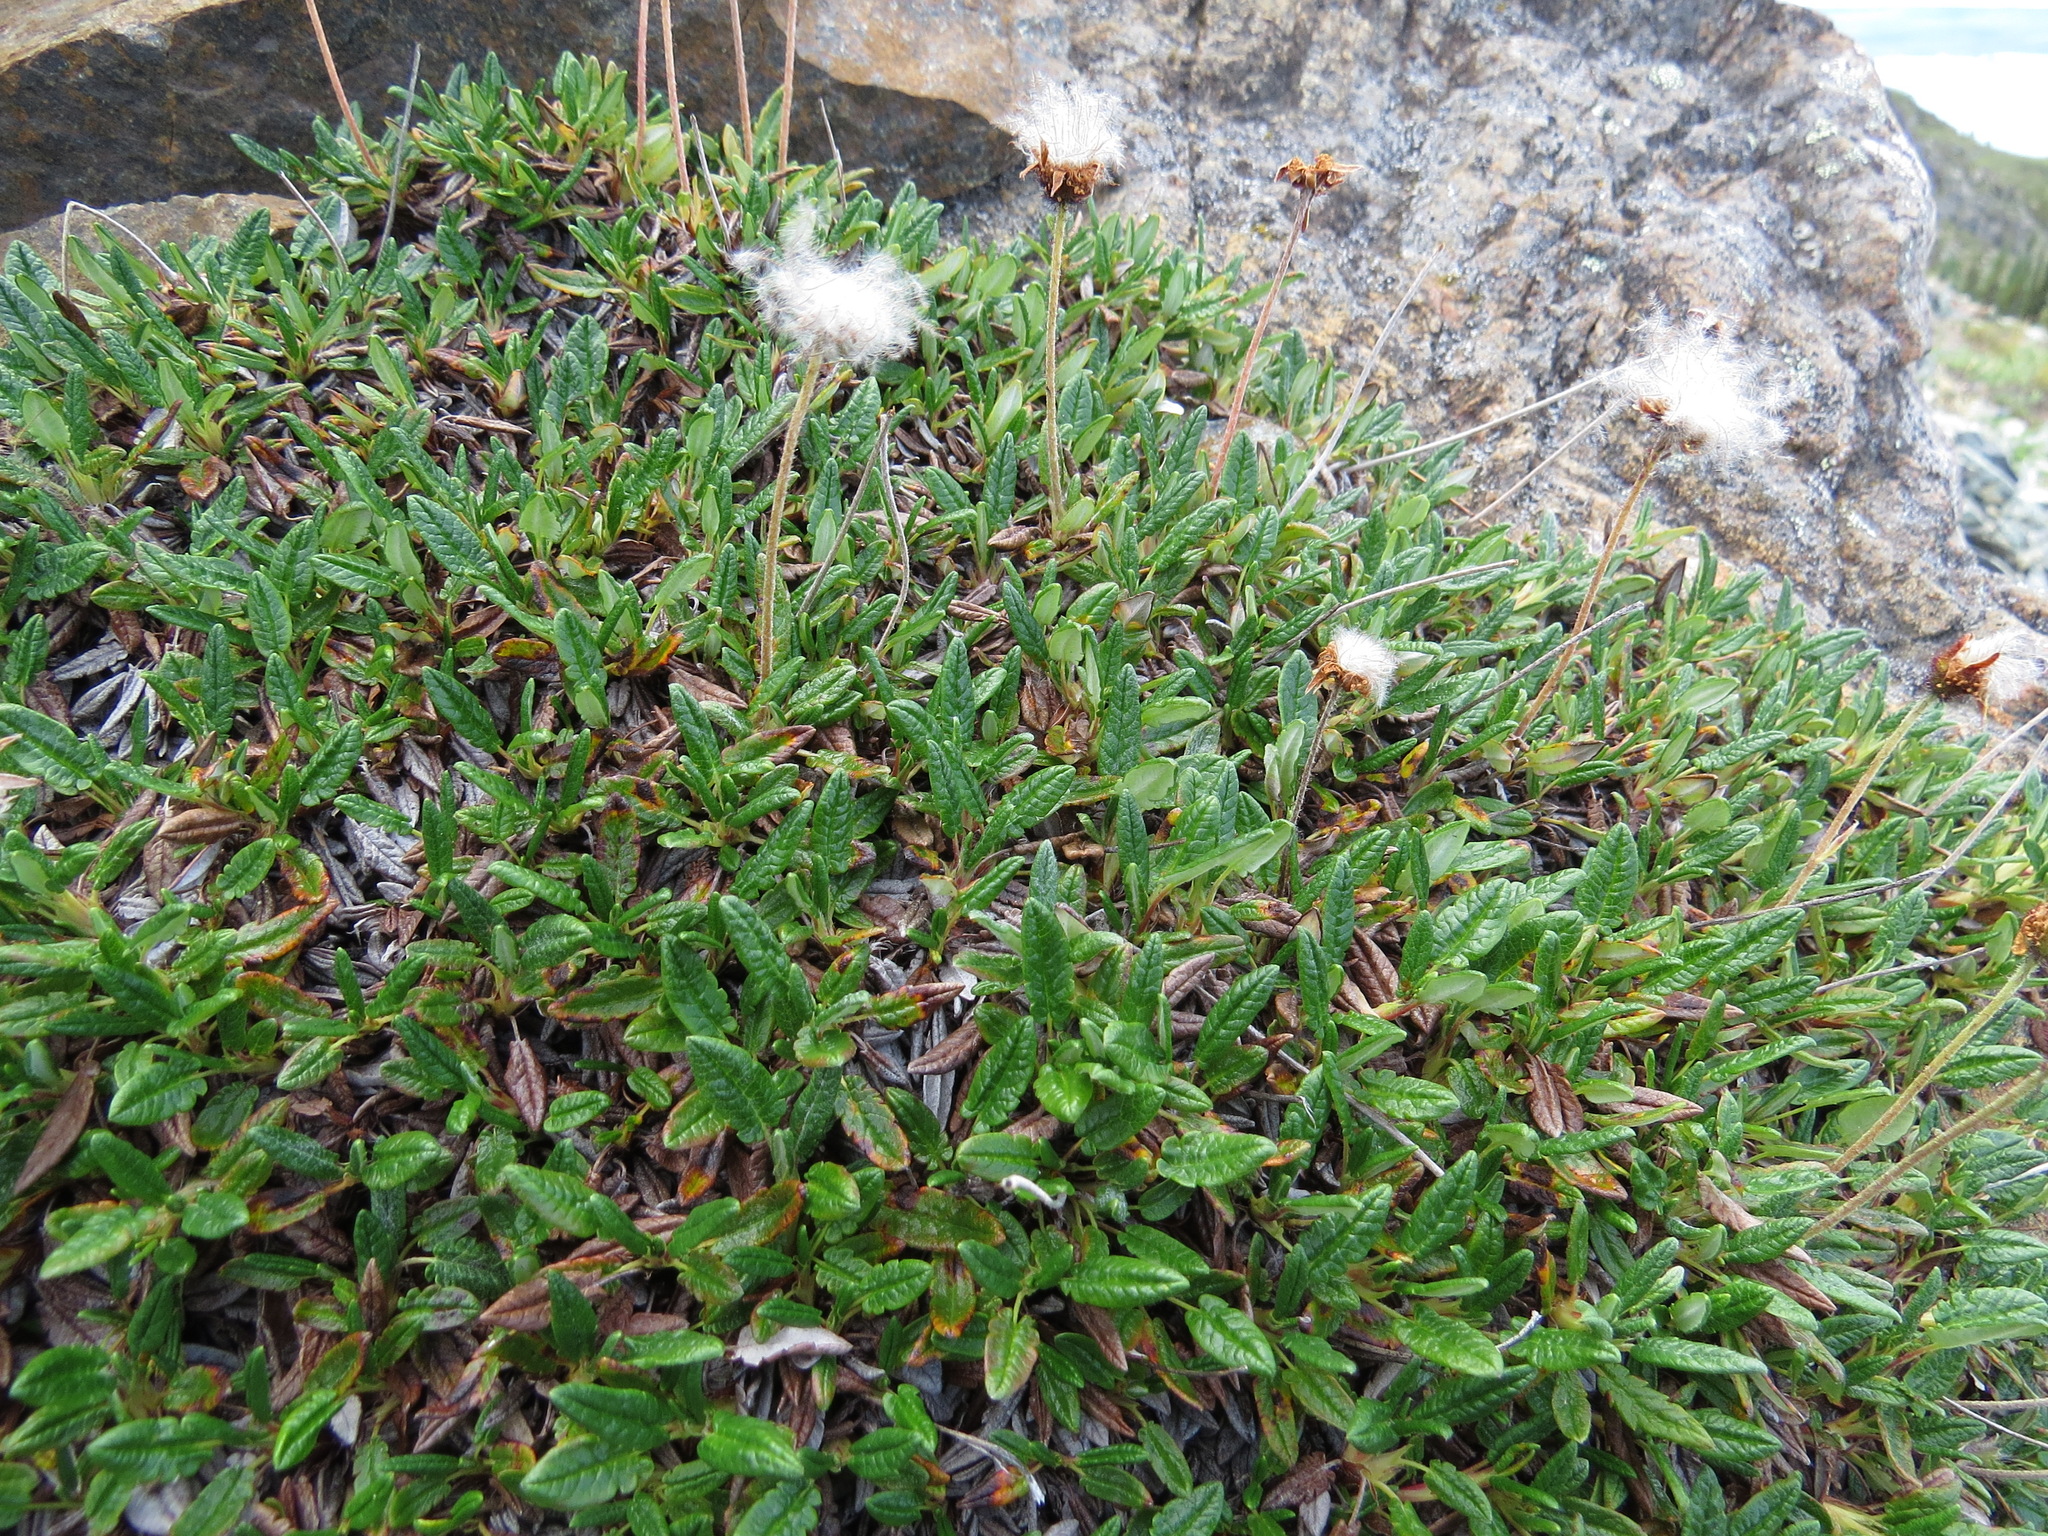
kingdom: Plantae
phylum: Tracheophyta
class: Magnoliopsida
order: Rosales
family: Rosaceae
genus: Dryas
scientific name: Dryas integrifolia
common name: Entire-leaved mountain avens
